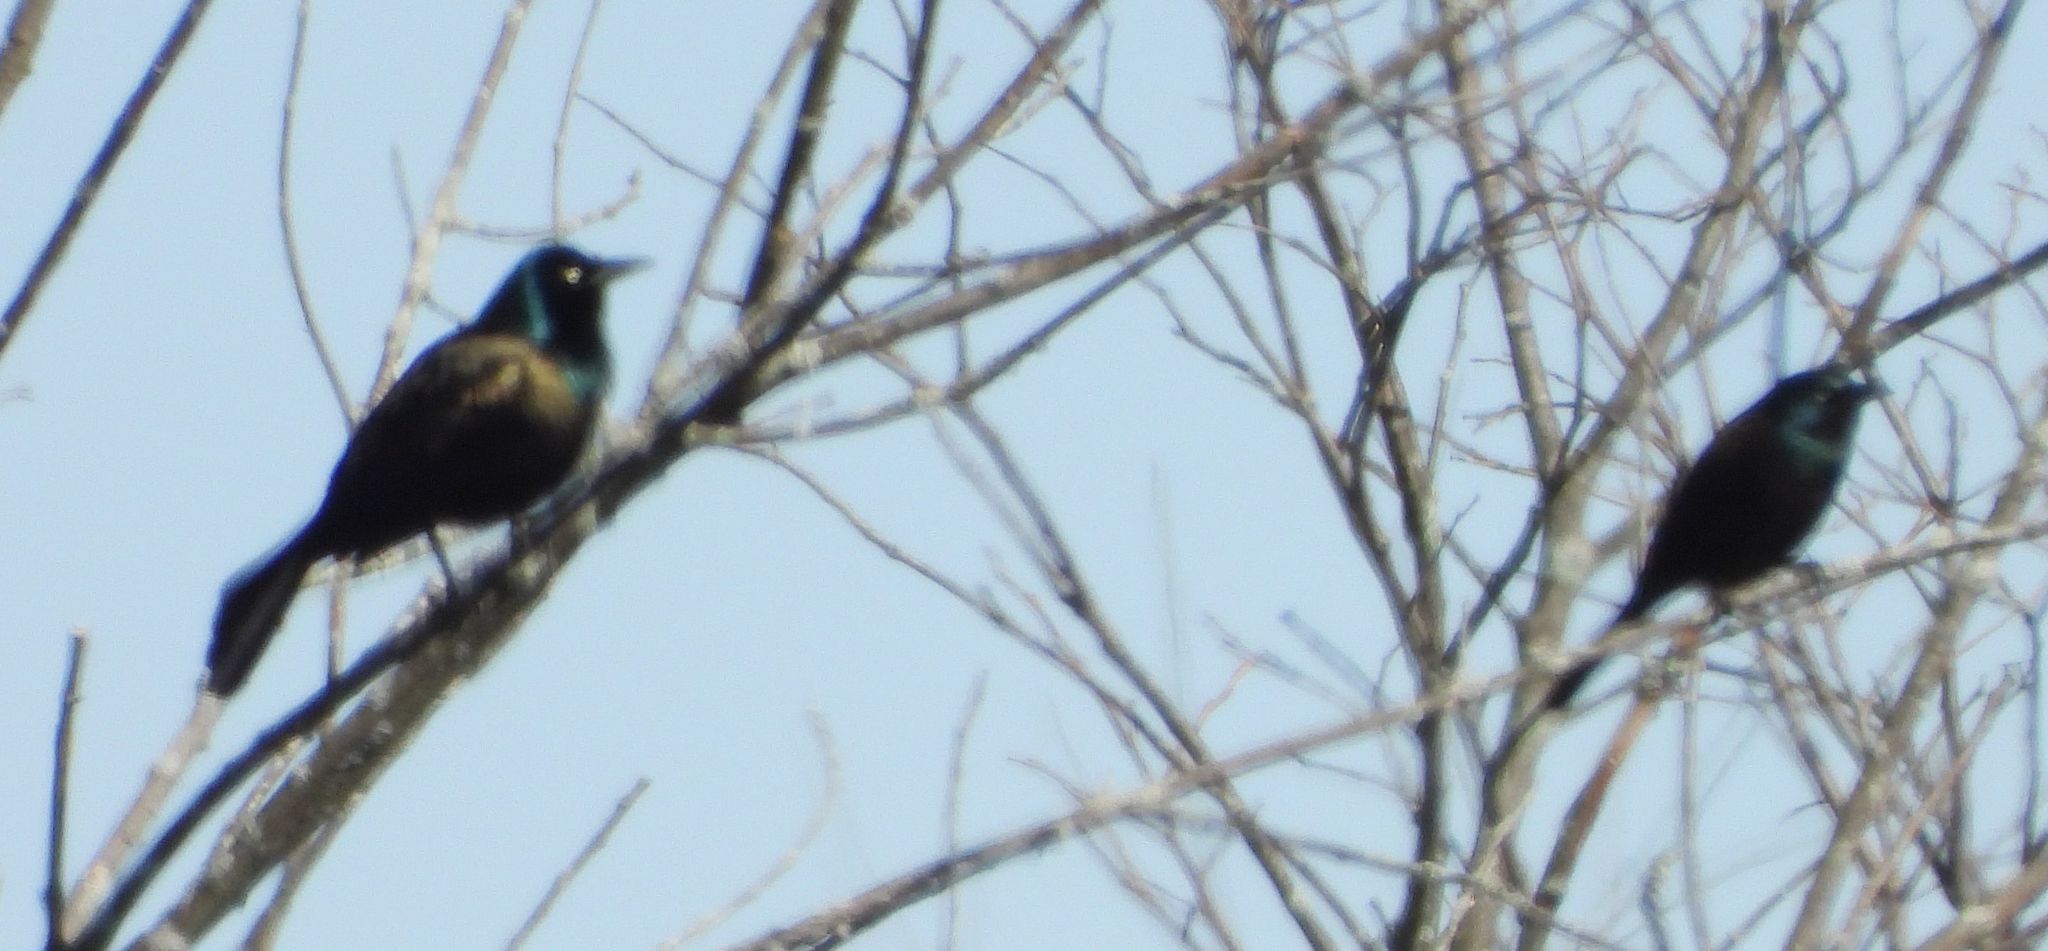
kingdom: Animalia
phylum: Chordata
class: Aves
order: Passeriformes
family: Icteridae
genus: Quiscalus
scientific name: Quiscalus quiscula
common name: Common grackle
